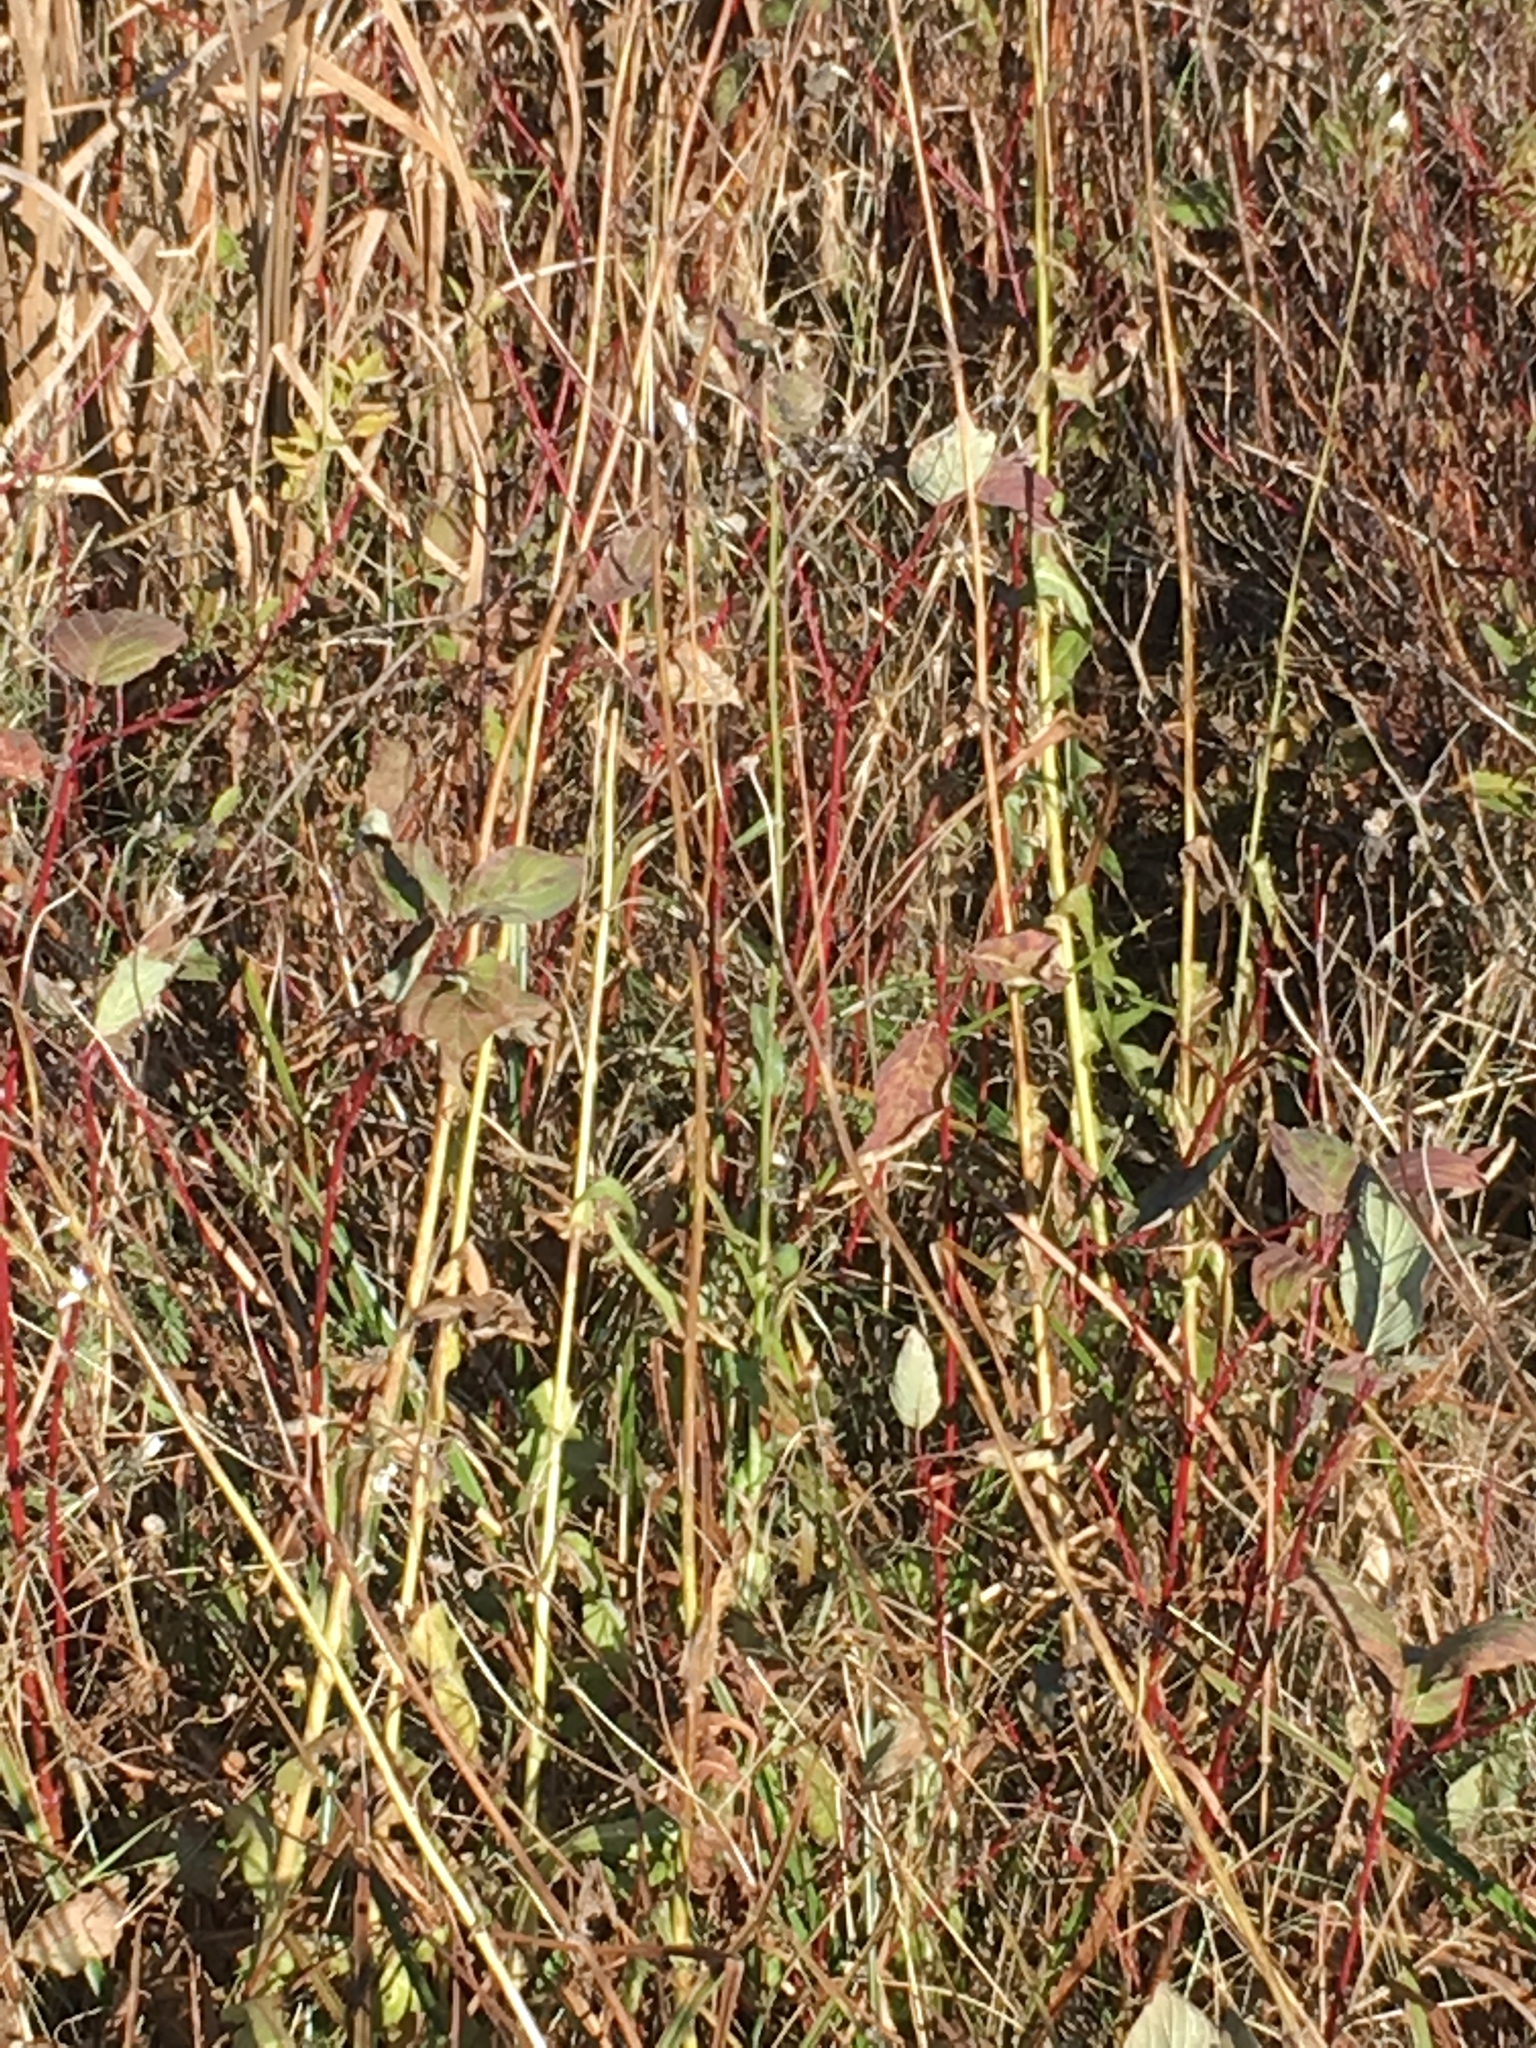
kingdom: Plantae
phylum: Tracheophyta
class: Magnoliopsida
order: Cornales
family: Cornaceae
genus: Cornus
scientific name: Cornus sericea
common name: Red-osier dogwood
